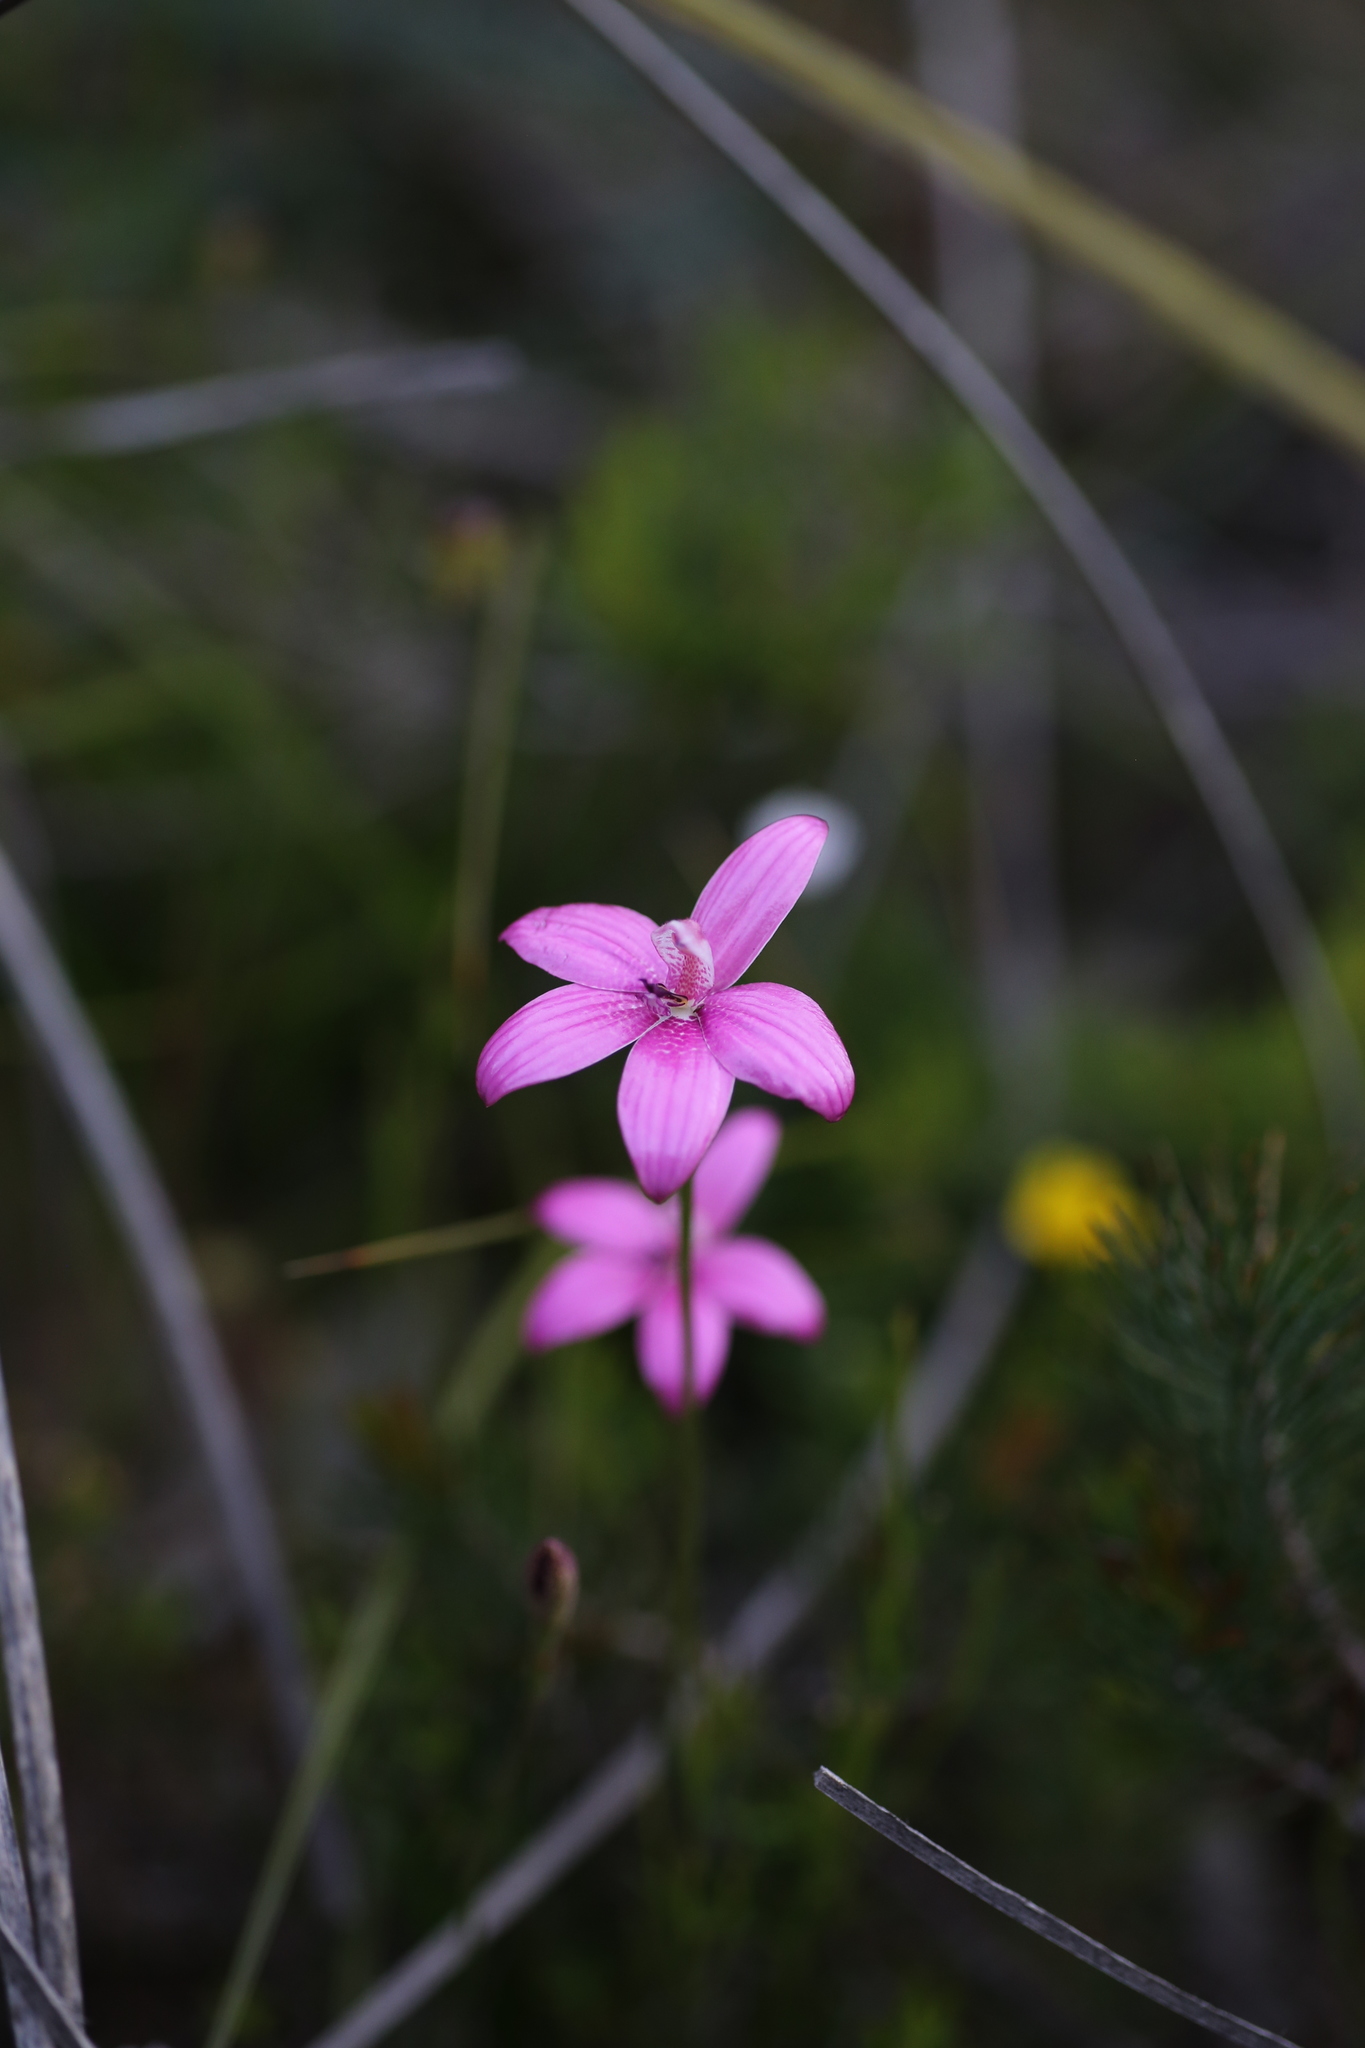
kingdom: Plantae
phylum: Tracheophyta
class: Liliopsida
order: Asparagales
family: Orchidaceae
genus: Caladenia
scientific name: Caladenia emarginata
